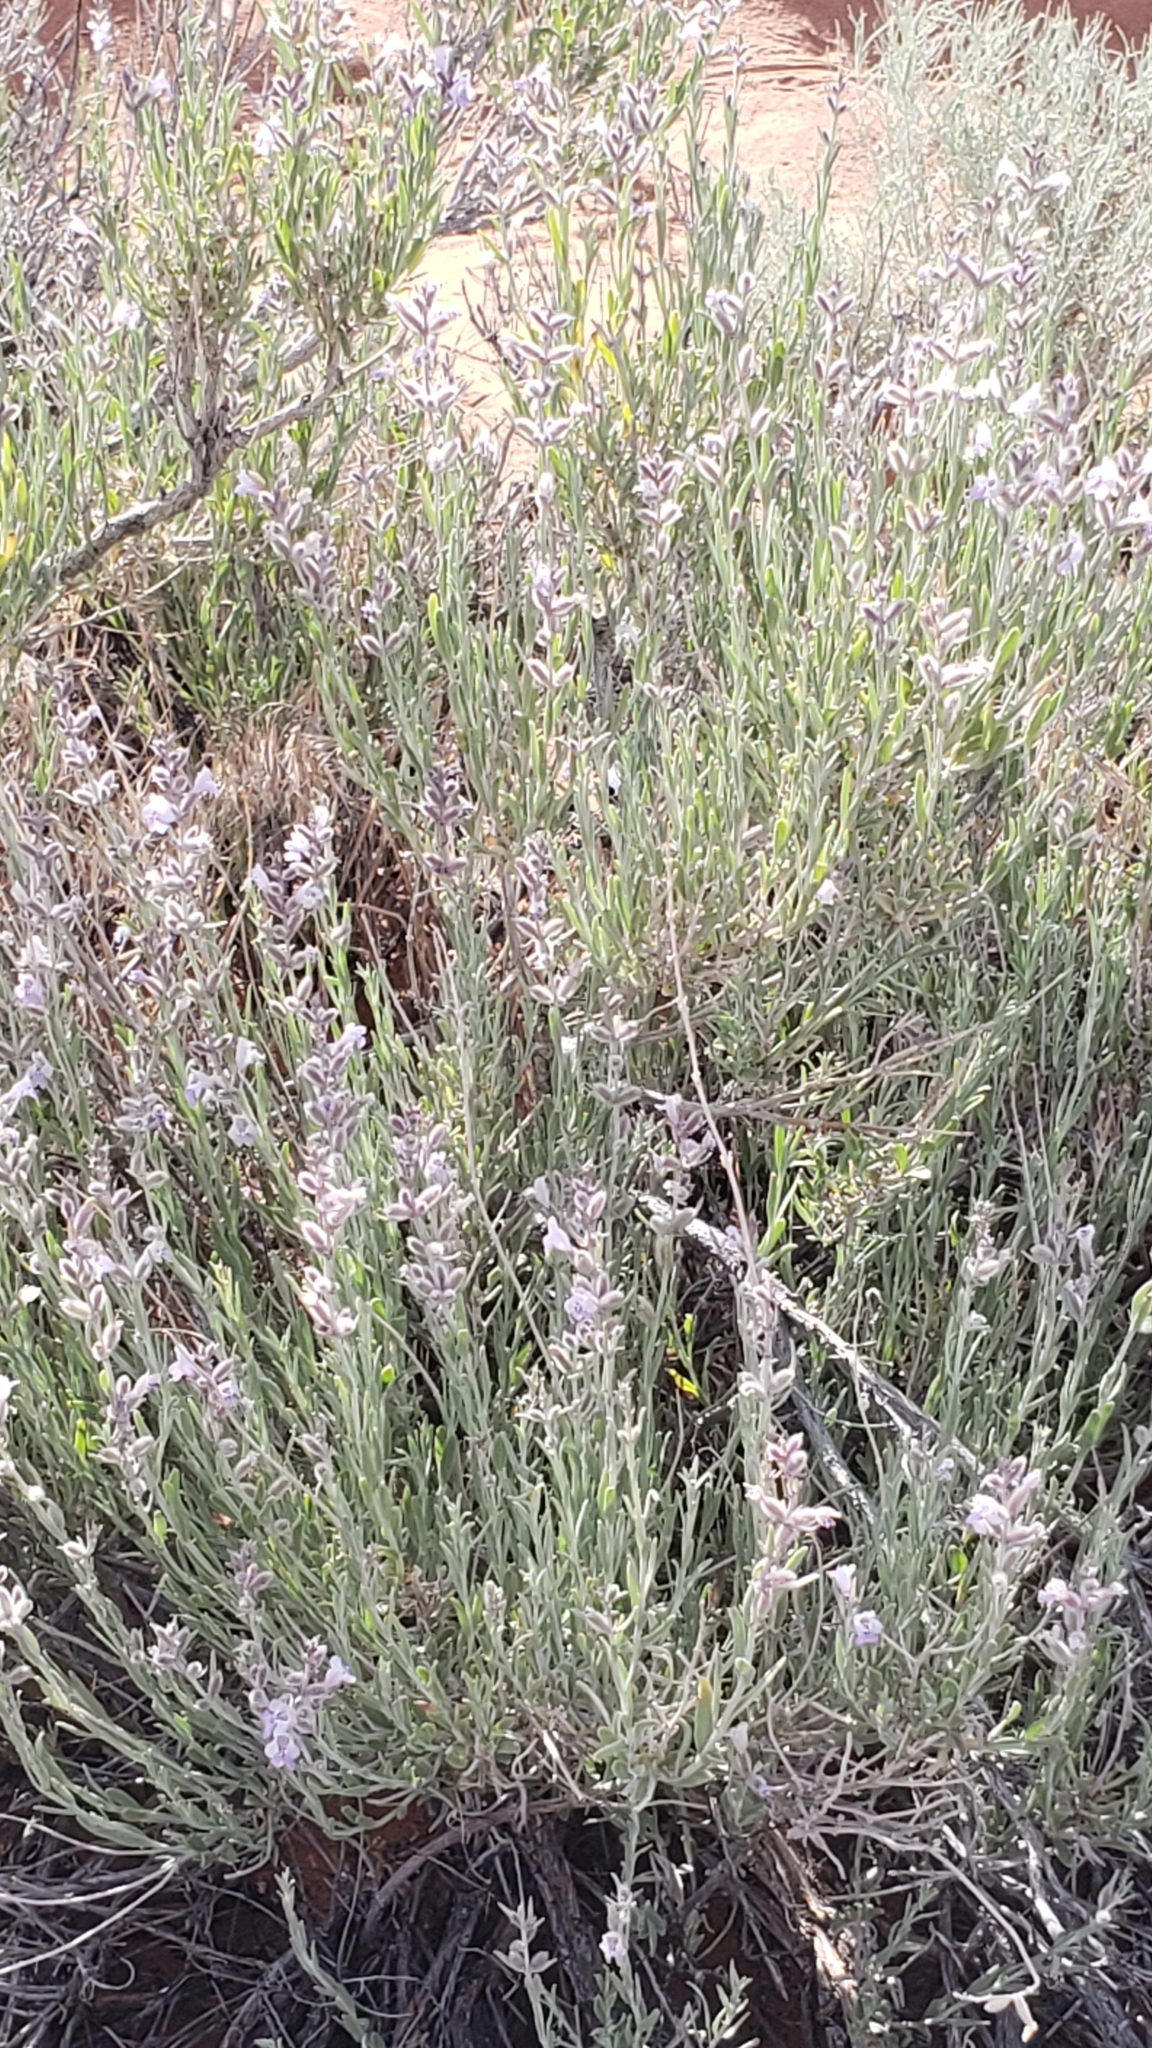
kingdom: Plantae
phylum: Tracheophyta
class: Magnoliopsida
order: Lamiales
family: Lamiaceae
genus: Poliomintha
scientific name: Poliomintha incana
